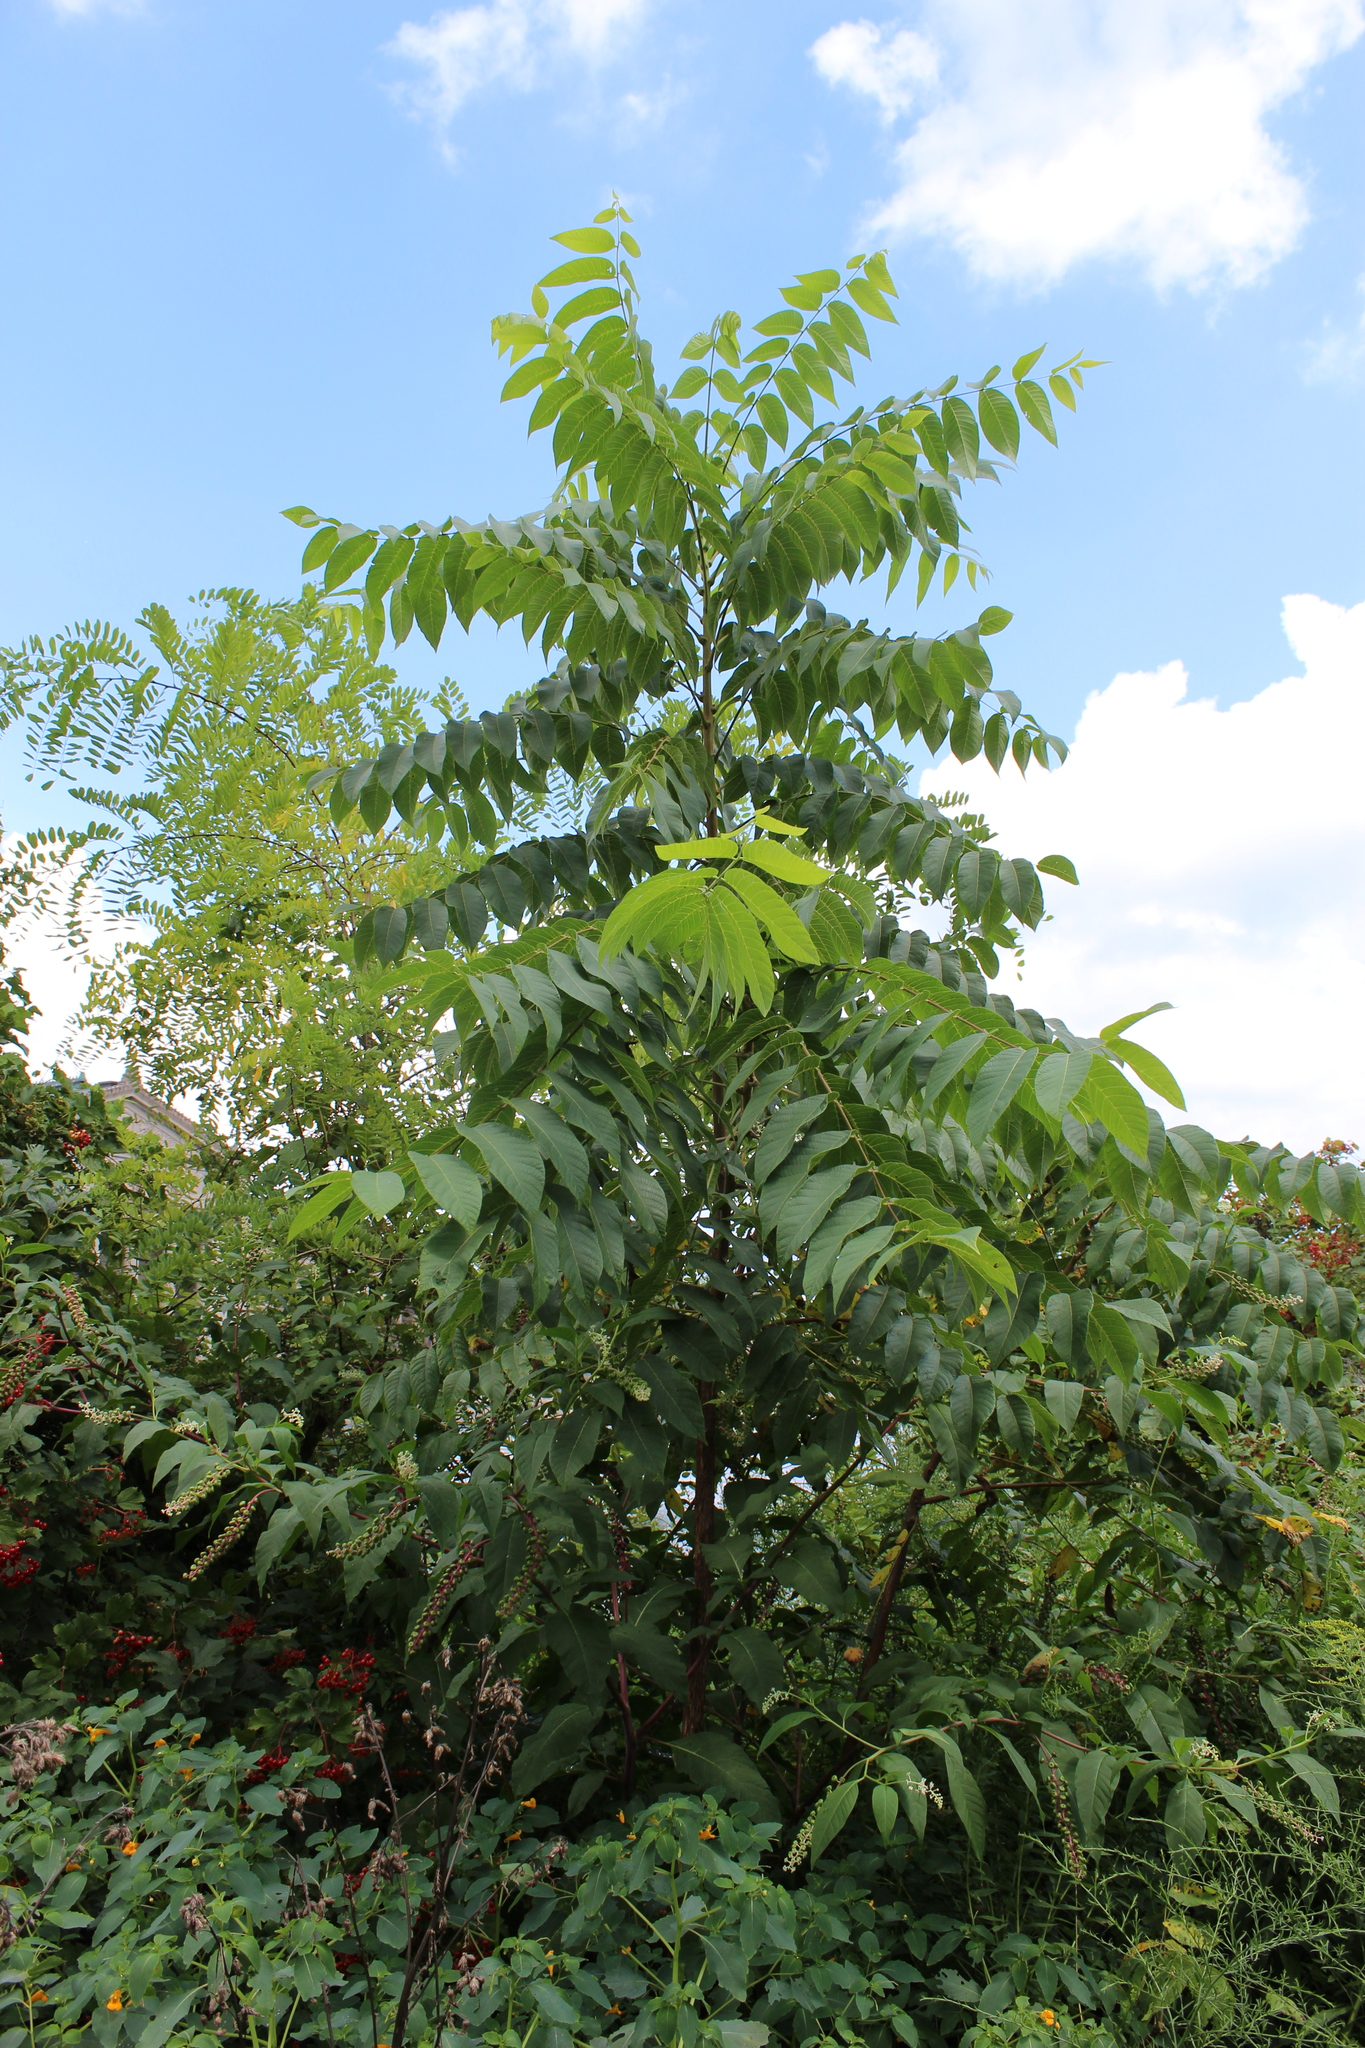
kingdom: Plantae
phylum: Tracheophyta
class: Magnoliopsida
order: Caryophyllales
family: Phytolaccaceae
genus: Phytolacca
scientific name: Phytolacca americana
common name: American pokeweed
